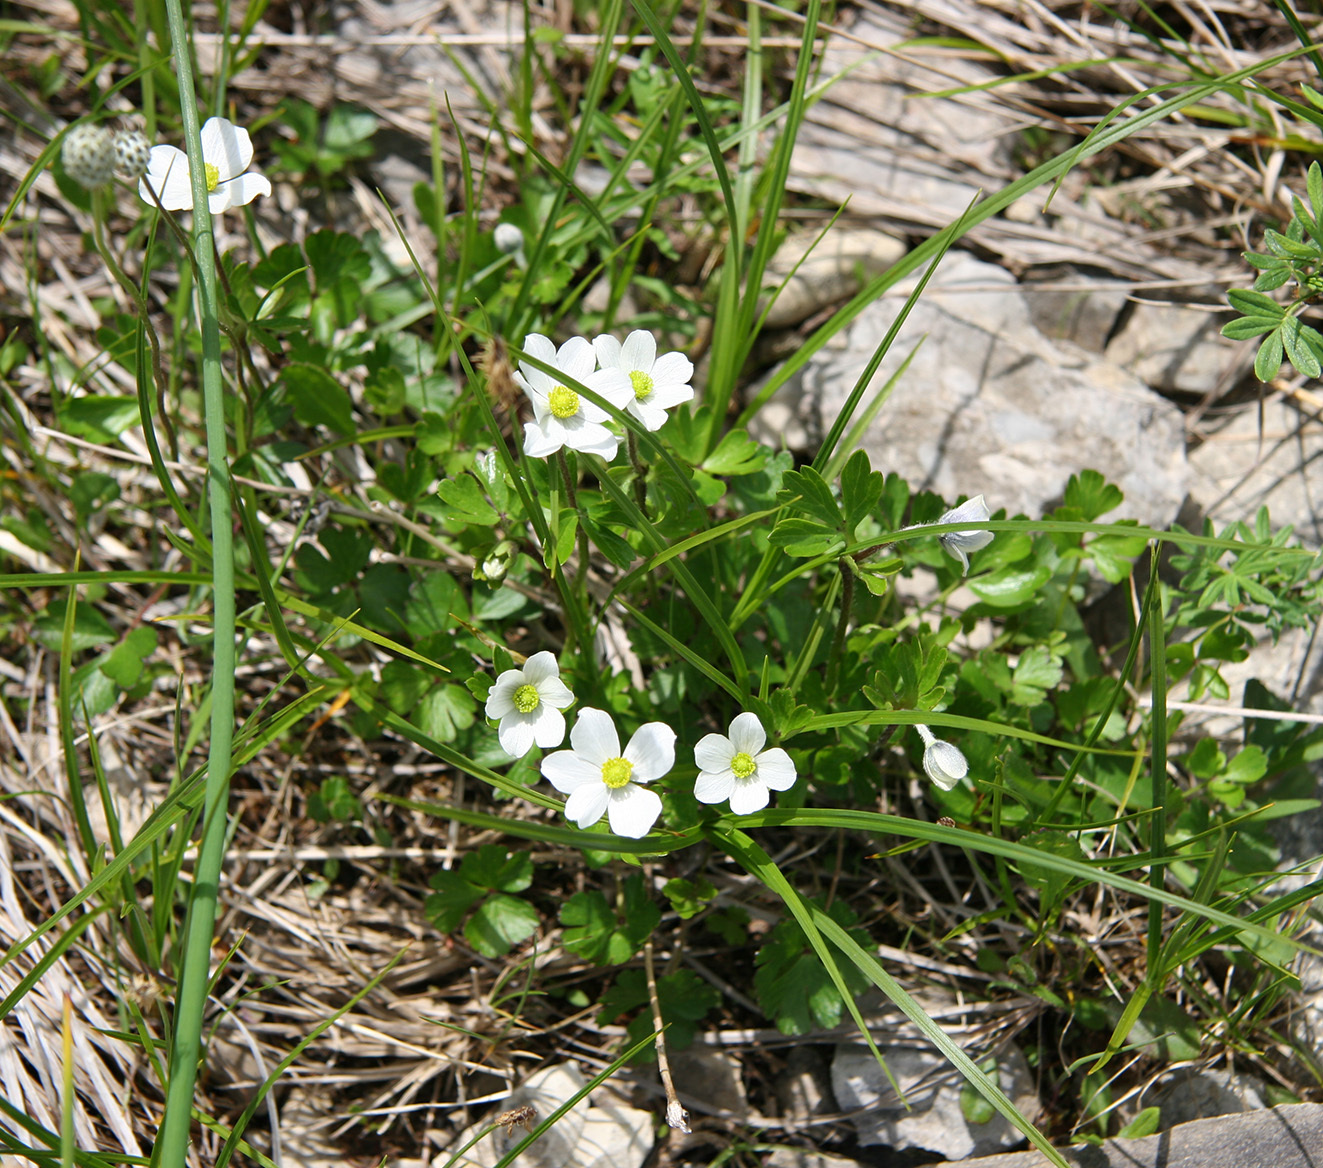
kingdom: Plantae
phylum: Tracheophyta
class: Magnoliopsida
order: Ranunculales
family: Ranunculaceae
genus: Anemone
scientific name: Anemone parviflora
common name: Northern anemone
